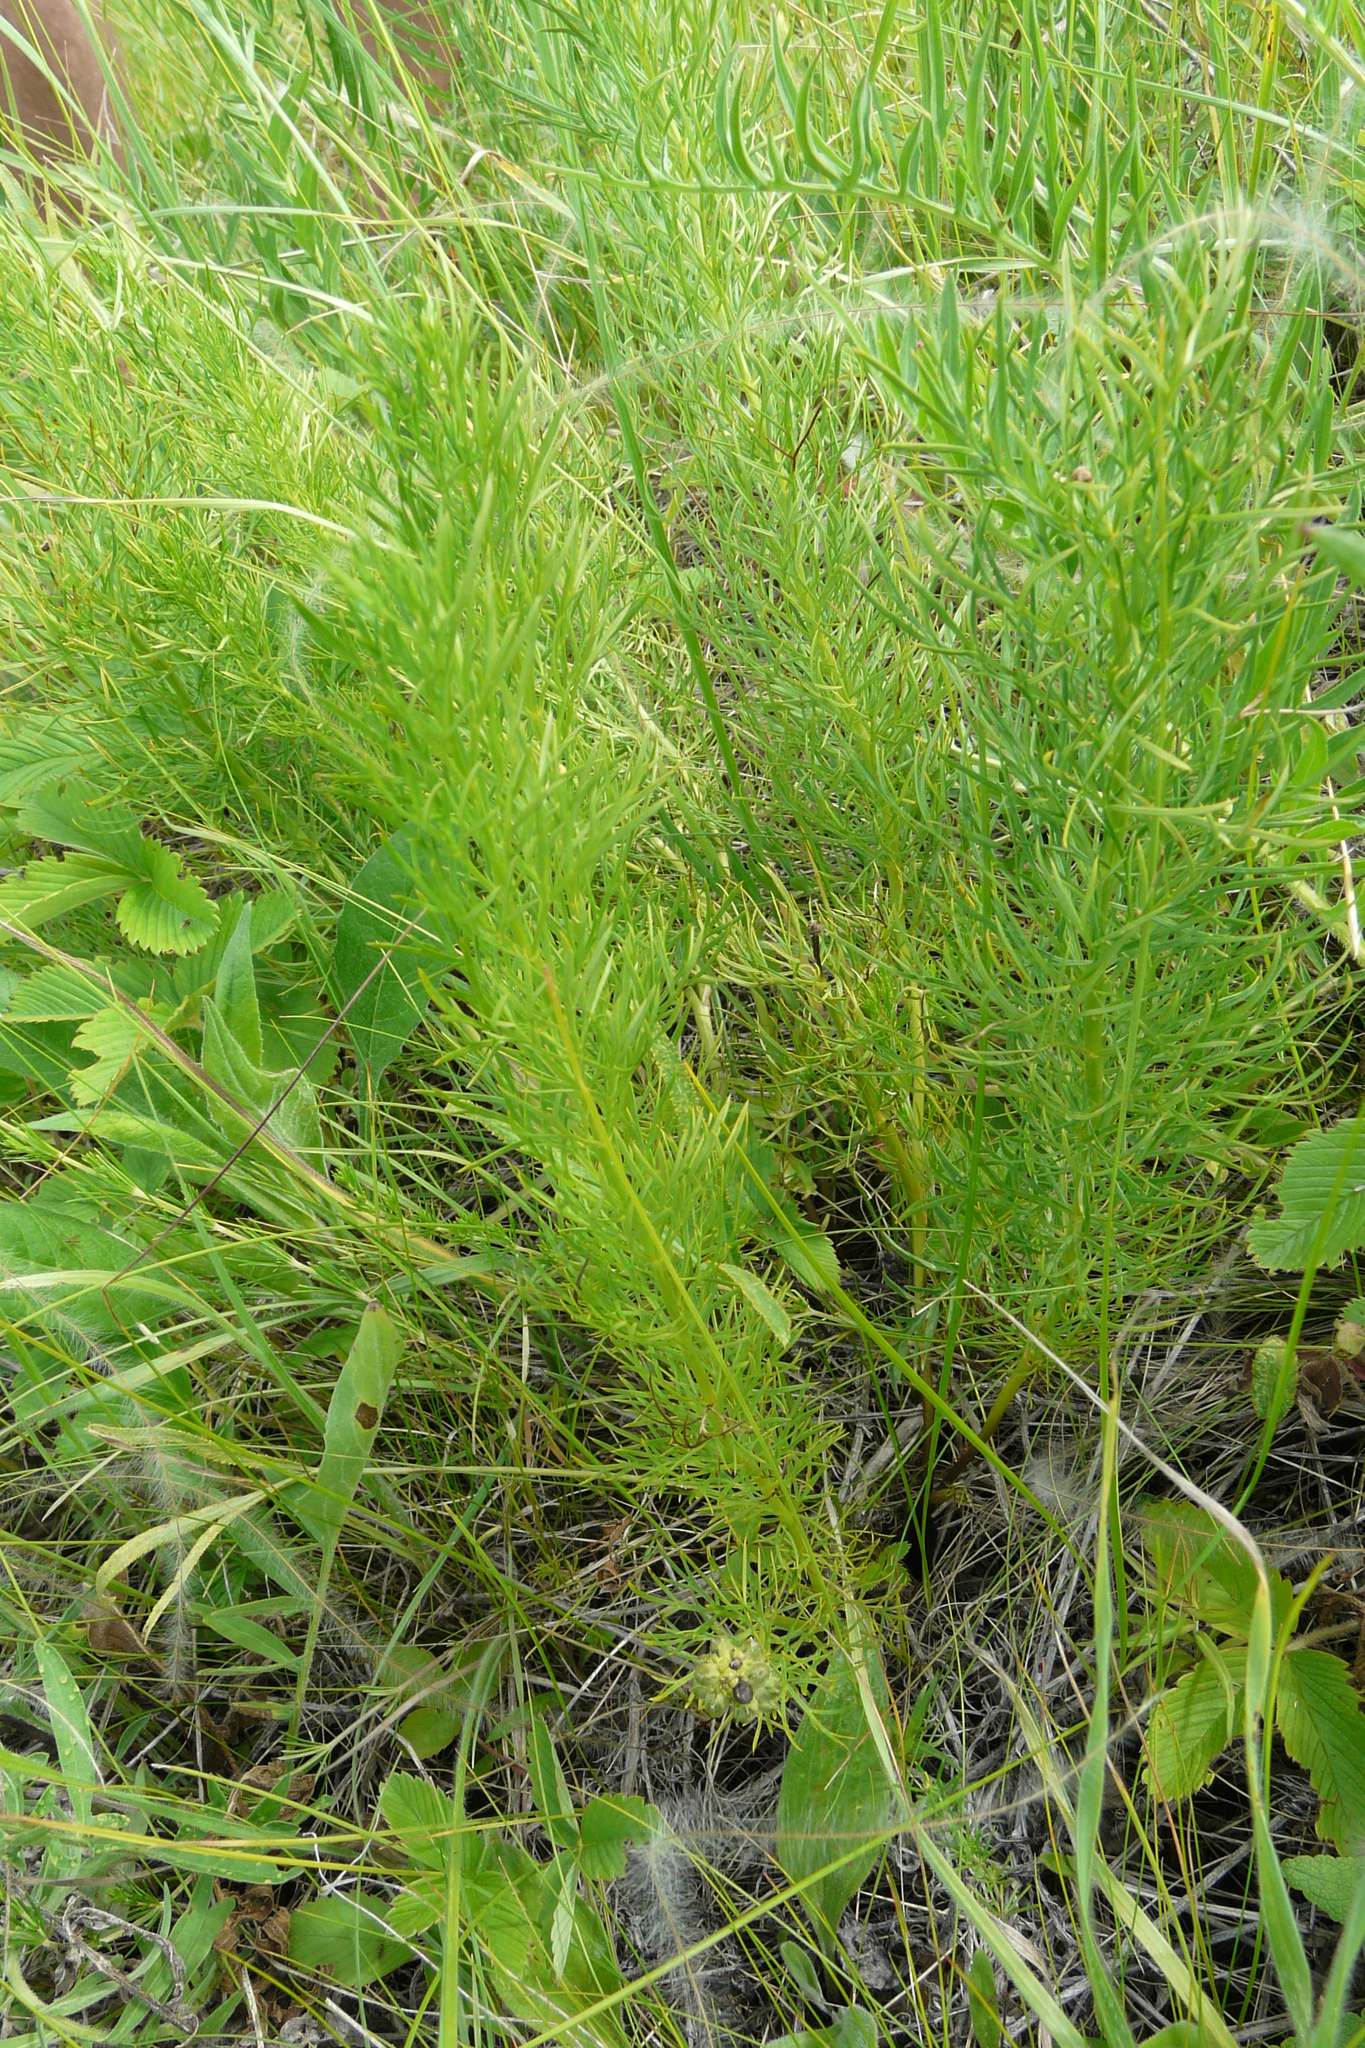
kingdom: Plantae
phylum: Tracheophyta
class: Magnoliopsida
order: Ranunculales
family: Ranunculaceae
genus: Adonis
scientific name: Adonis vernalis
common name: Yellow pheasants-eye
